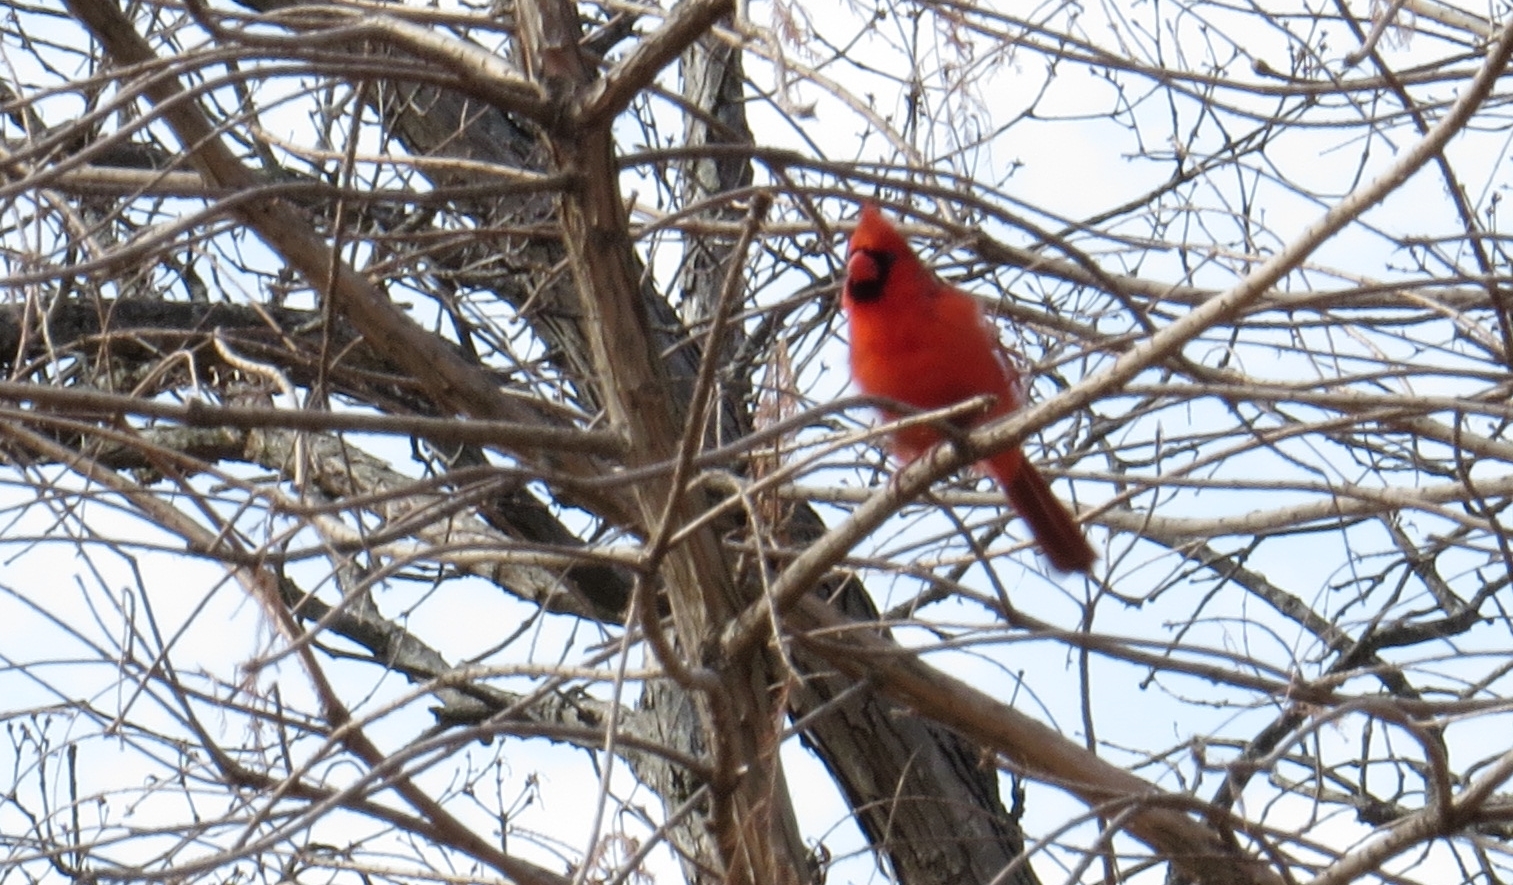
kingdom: Animalia
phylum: Chordata
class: Aves
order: Passeriformes
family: Cardinalidae
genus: Cardinalis
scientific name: Cardinalis cardinalis
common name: Northern cardinal
